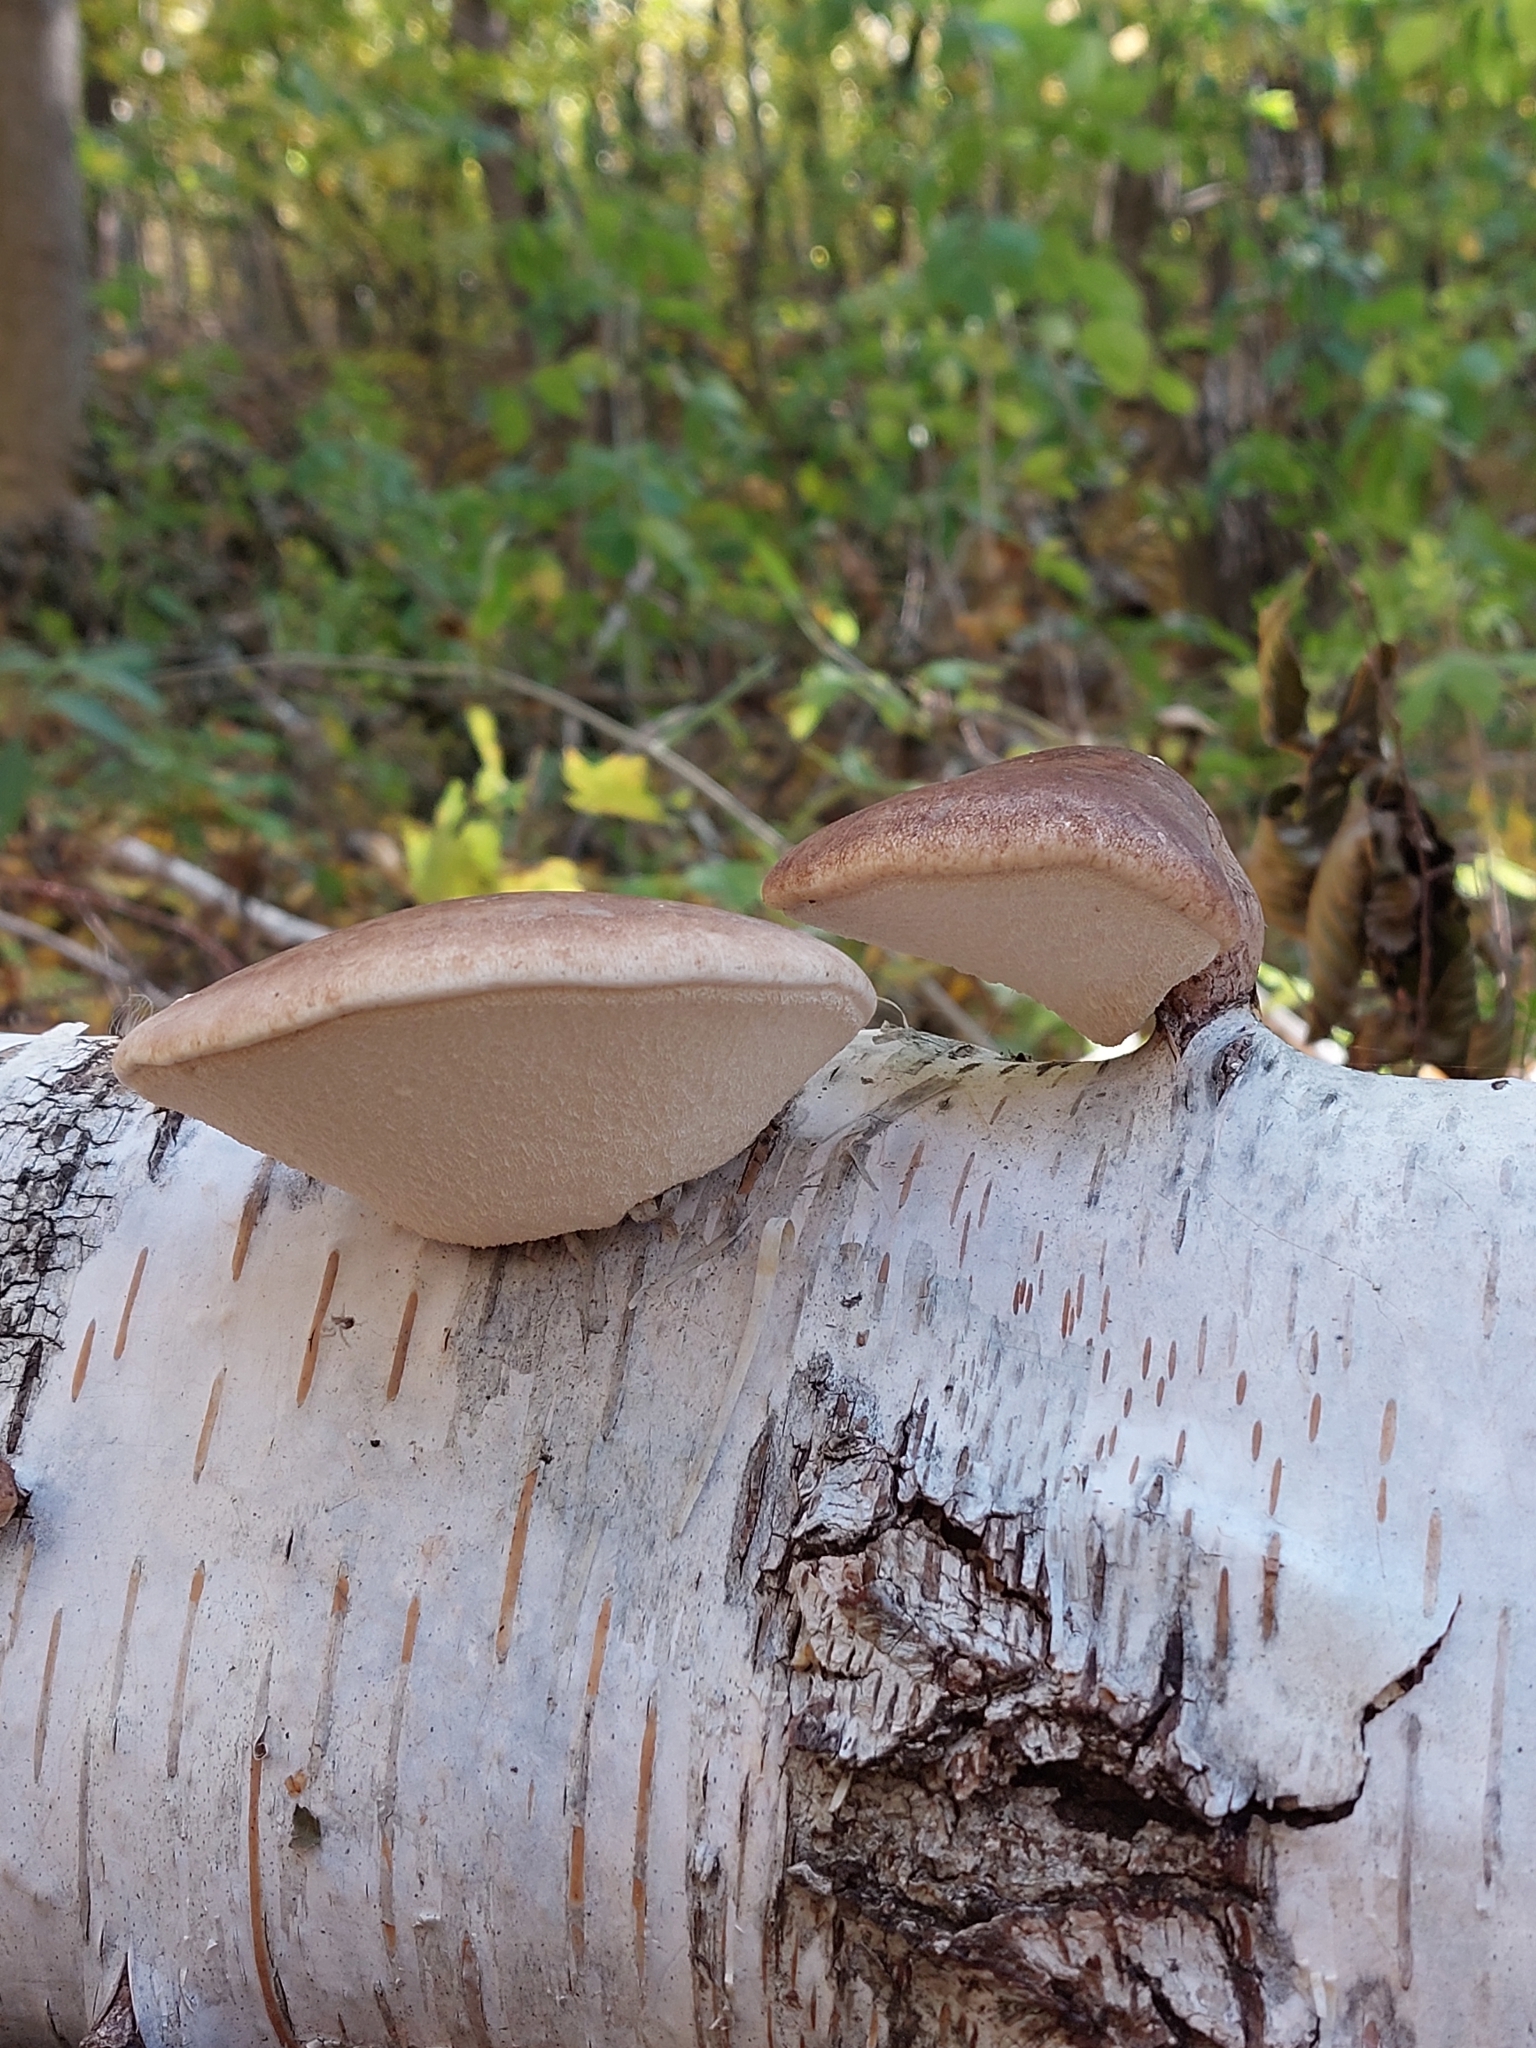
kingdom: Fungi
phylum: Basidiomycota
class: Agaricomycetes
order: Polyporales
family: Fomitopsidaceae
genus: Fomitopsis
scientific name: Fomitopsis betulina
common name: Birch polypore
